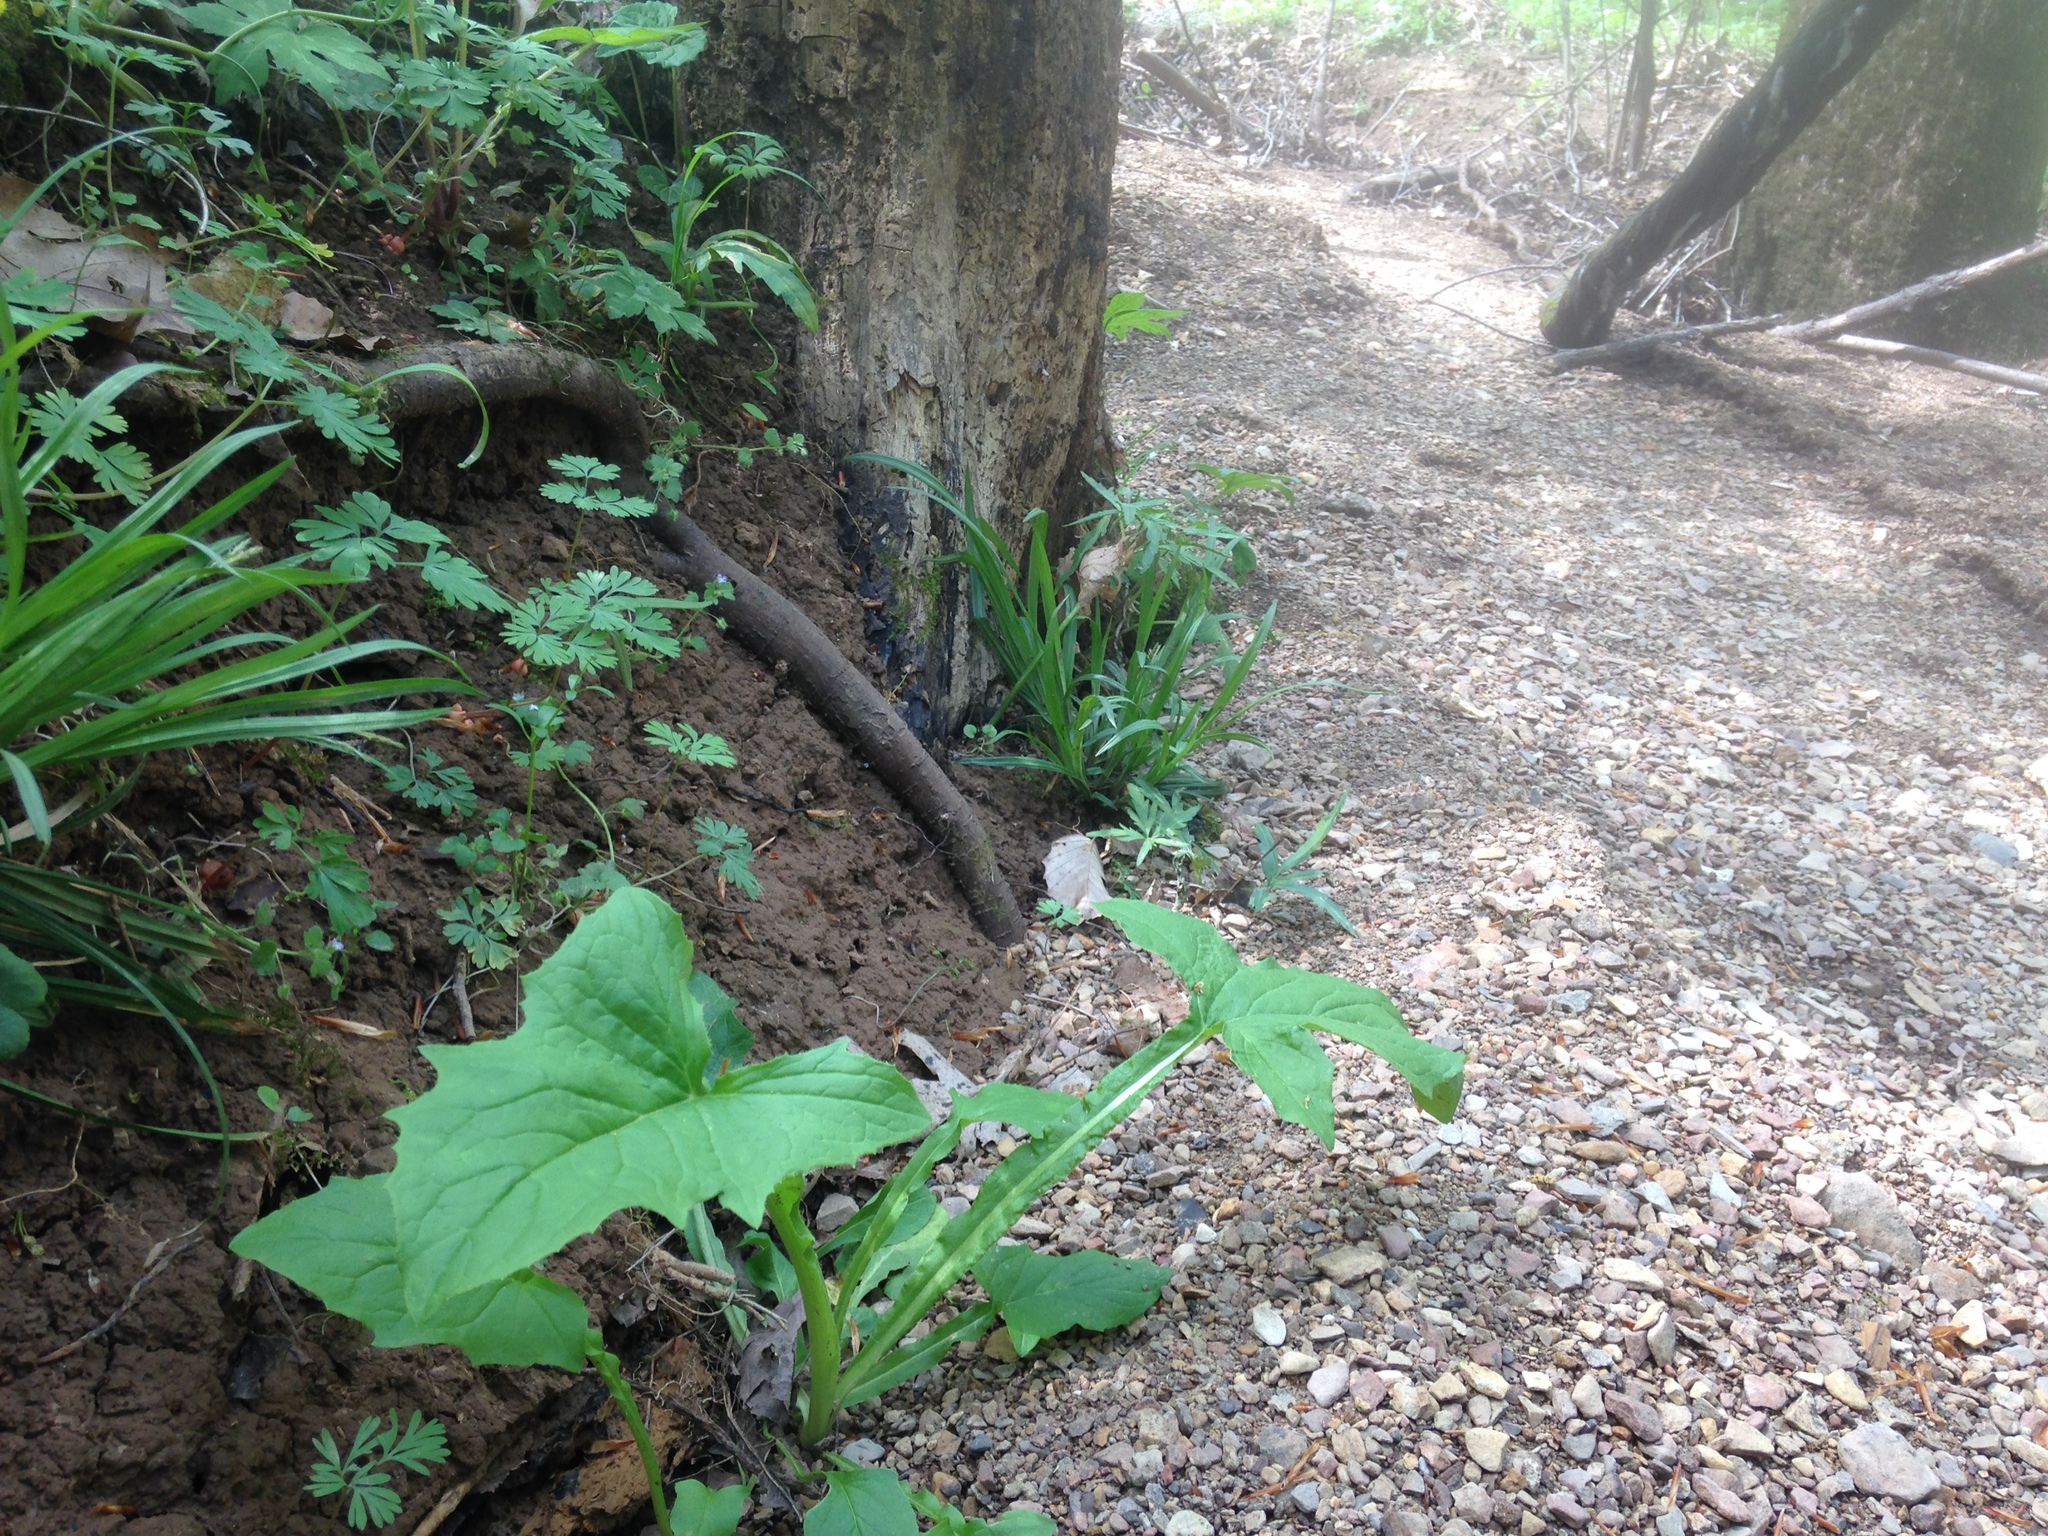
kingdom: Plantae
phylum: Tracheophyta
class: Magnoliopsida
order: Asterales
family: Asteraceae
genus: Nabalus
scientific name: Nabalus crepidineus
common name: Nodding rattlesnakeroot
